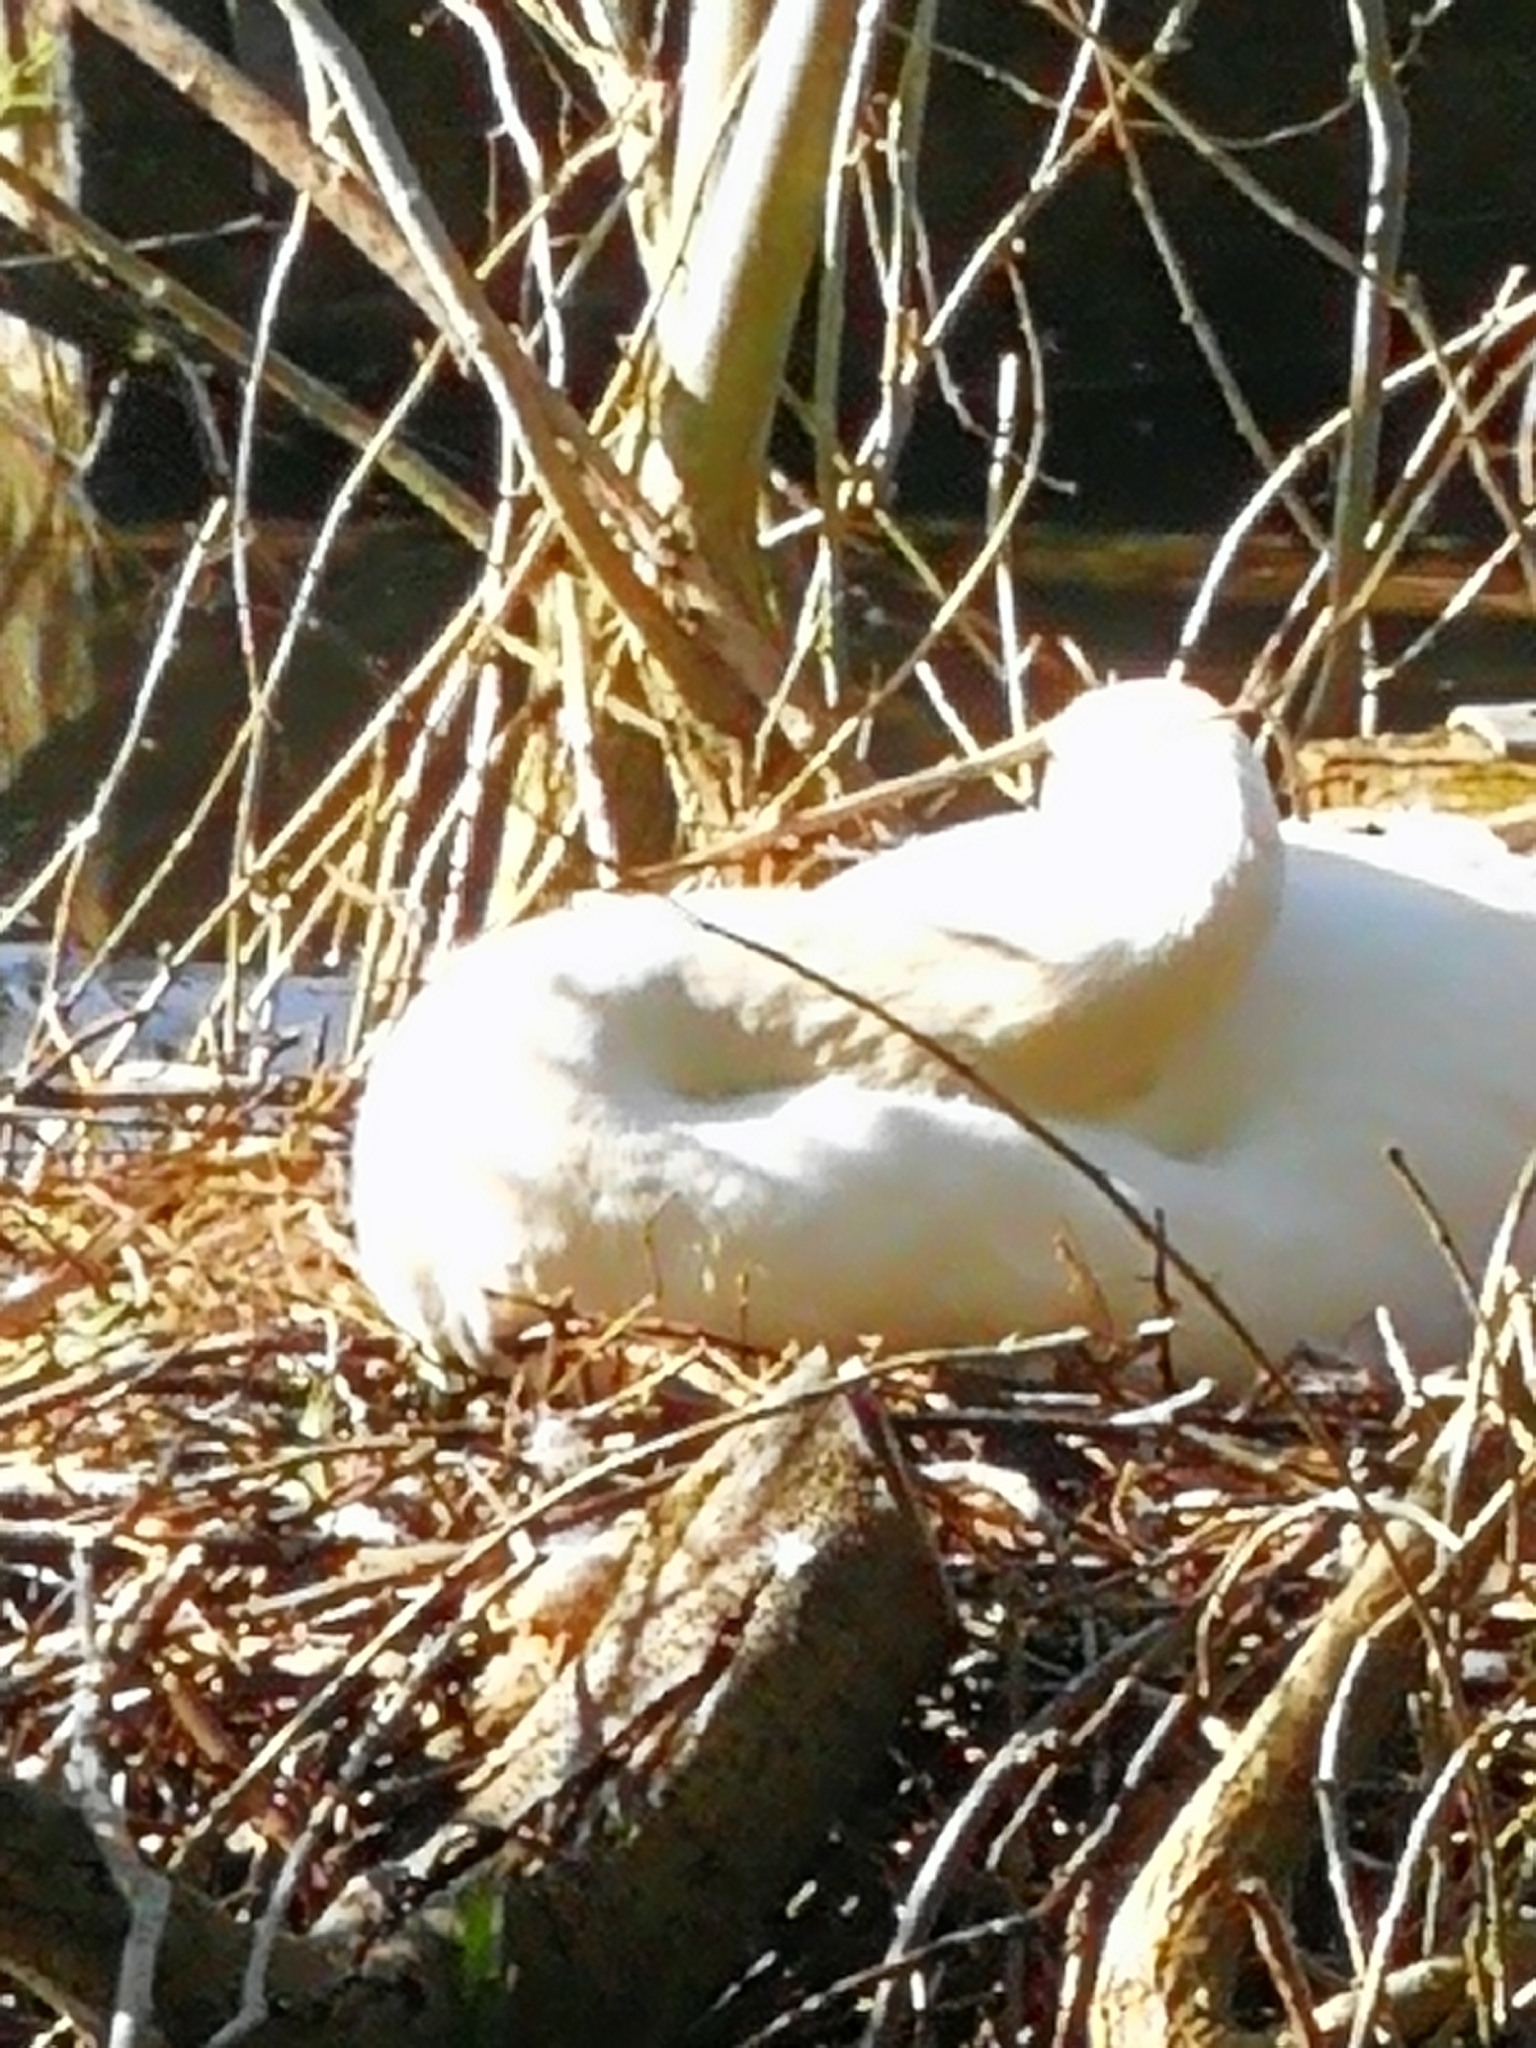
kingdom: Animalia
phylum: Chordata
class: Aves
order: Anseriformes
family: Anatidae
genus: Cygnus
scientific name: Cygnus olor
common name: Mute swan
